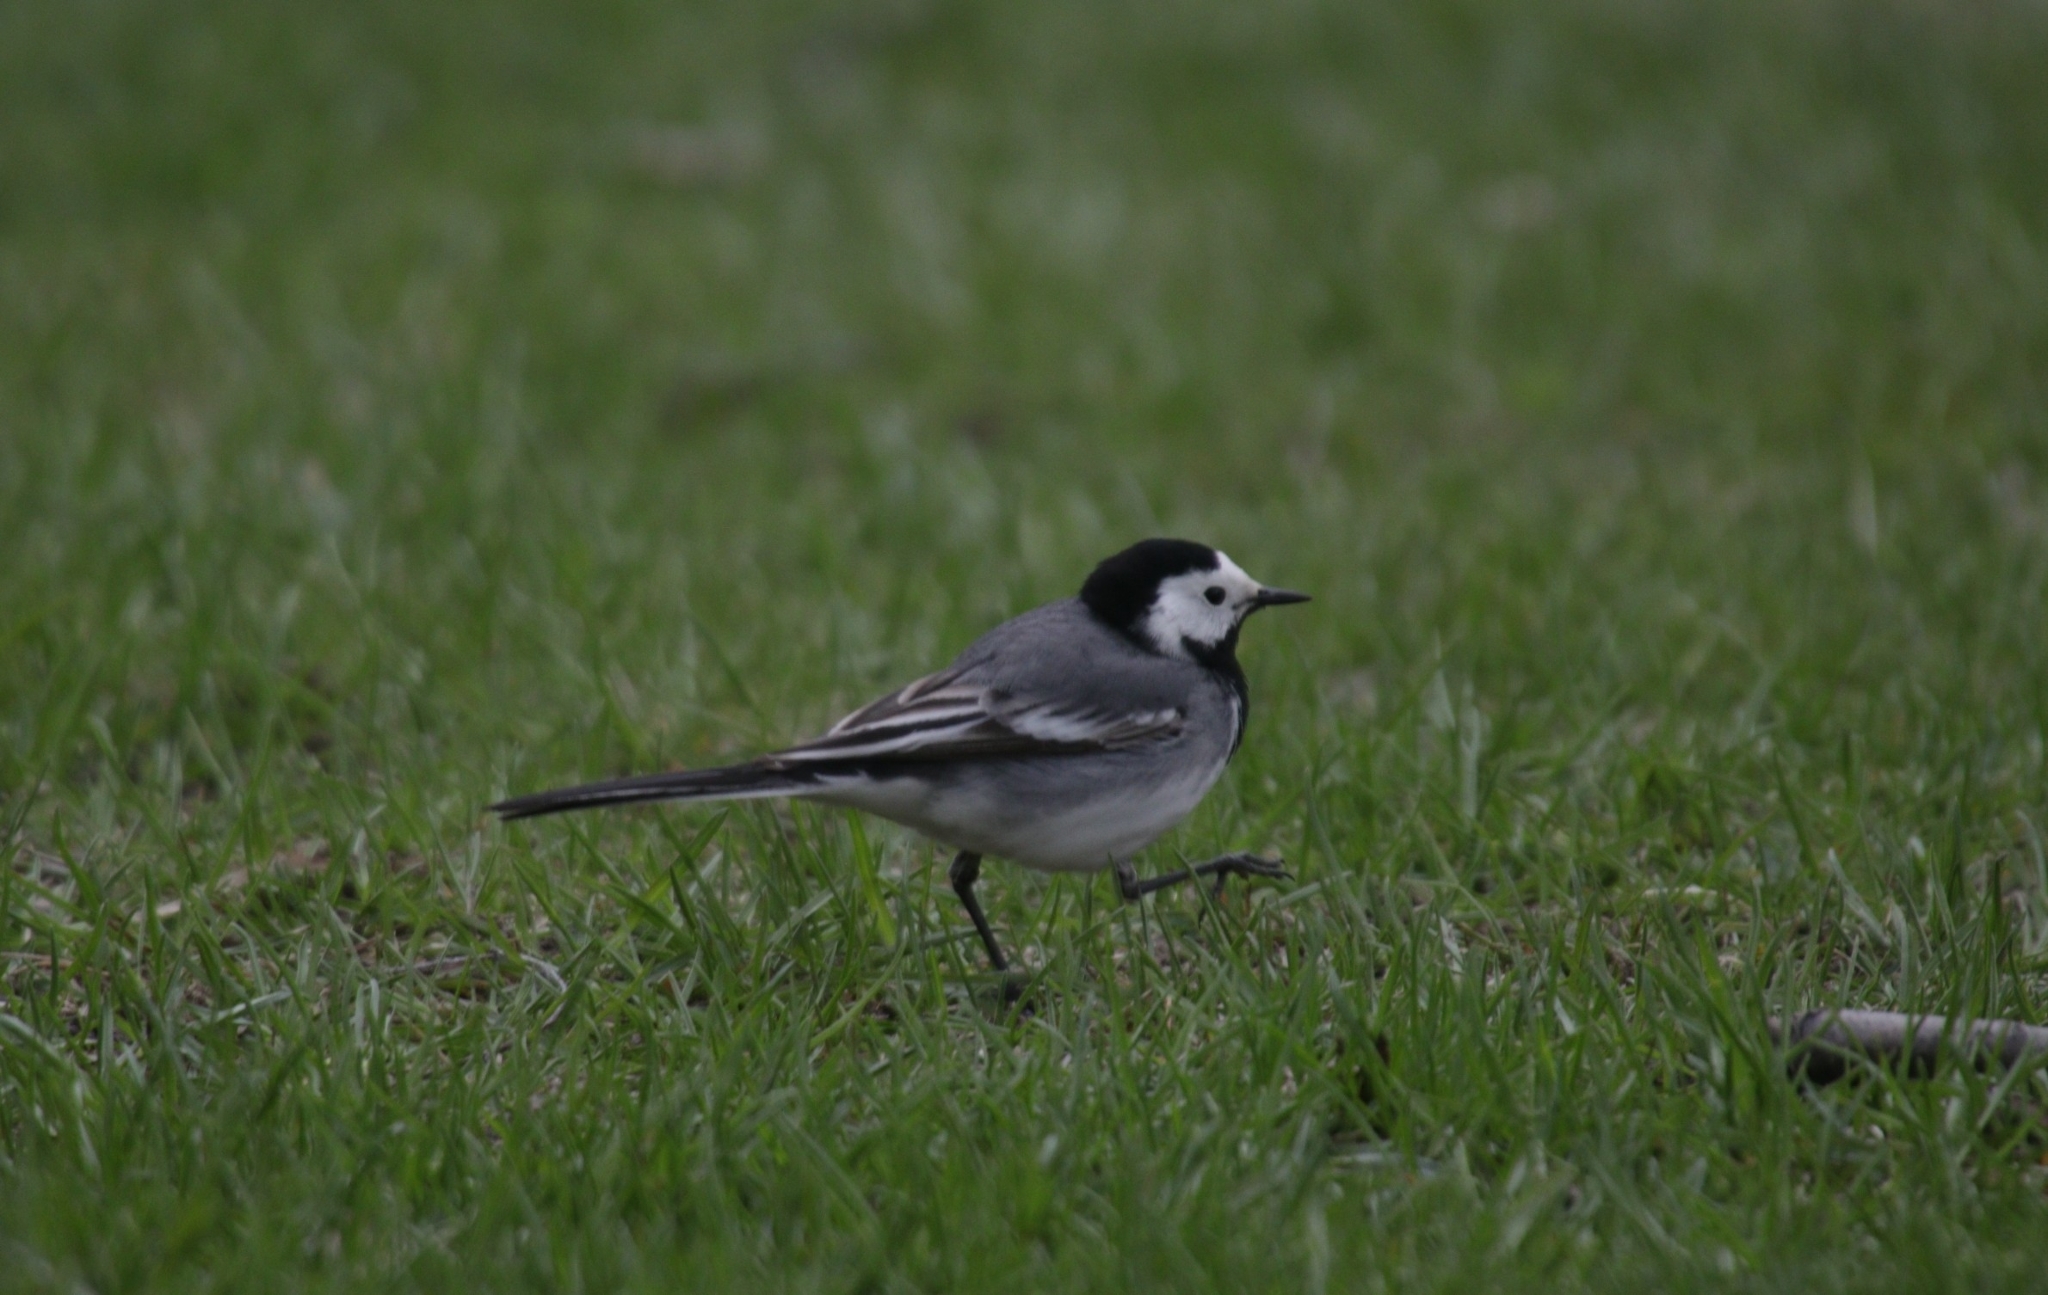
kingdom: Animalia
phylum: Chordata
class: Aves
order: Passeriformes
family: Motacillidae
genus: Motacilla
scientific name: Motacilla alba
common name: White wagtail
